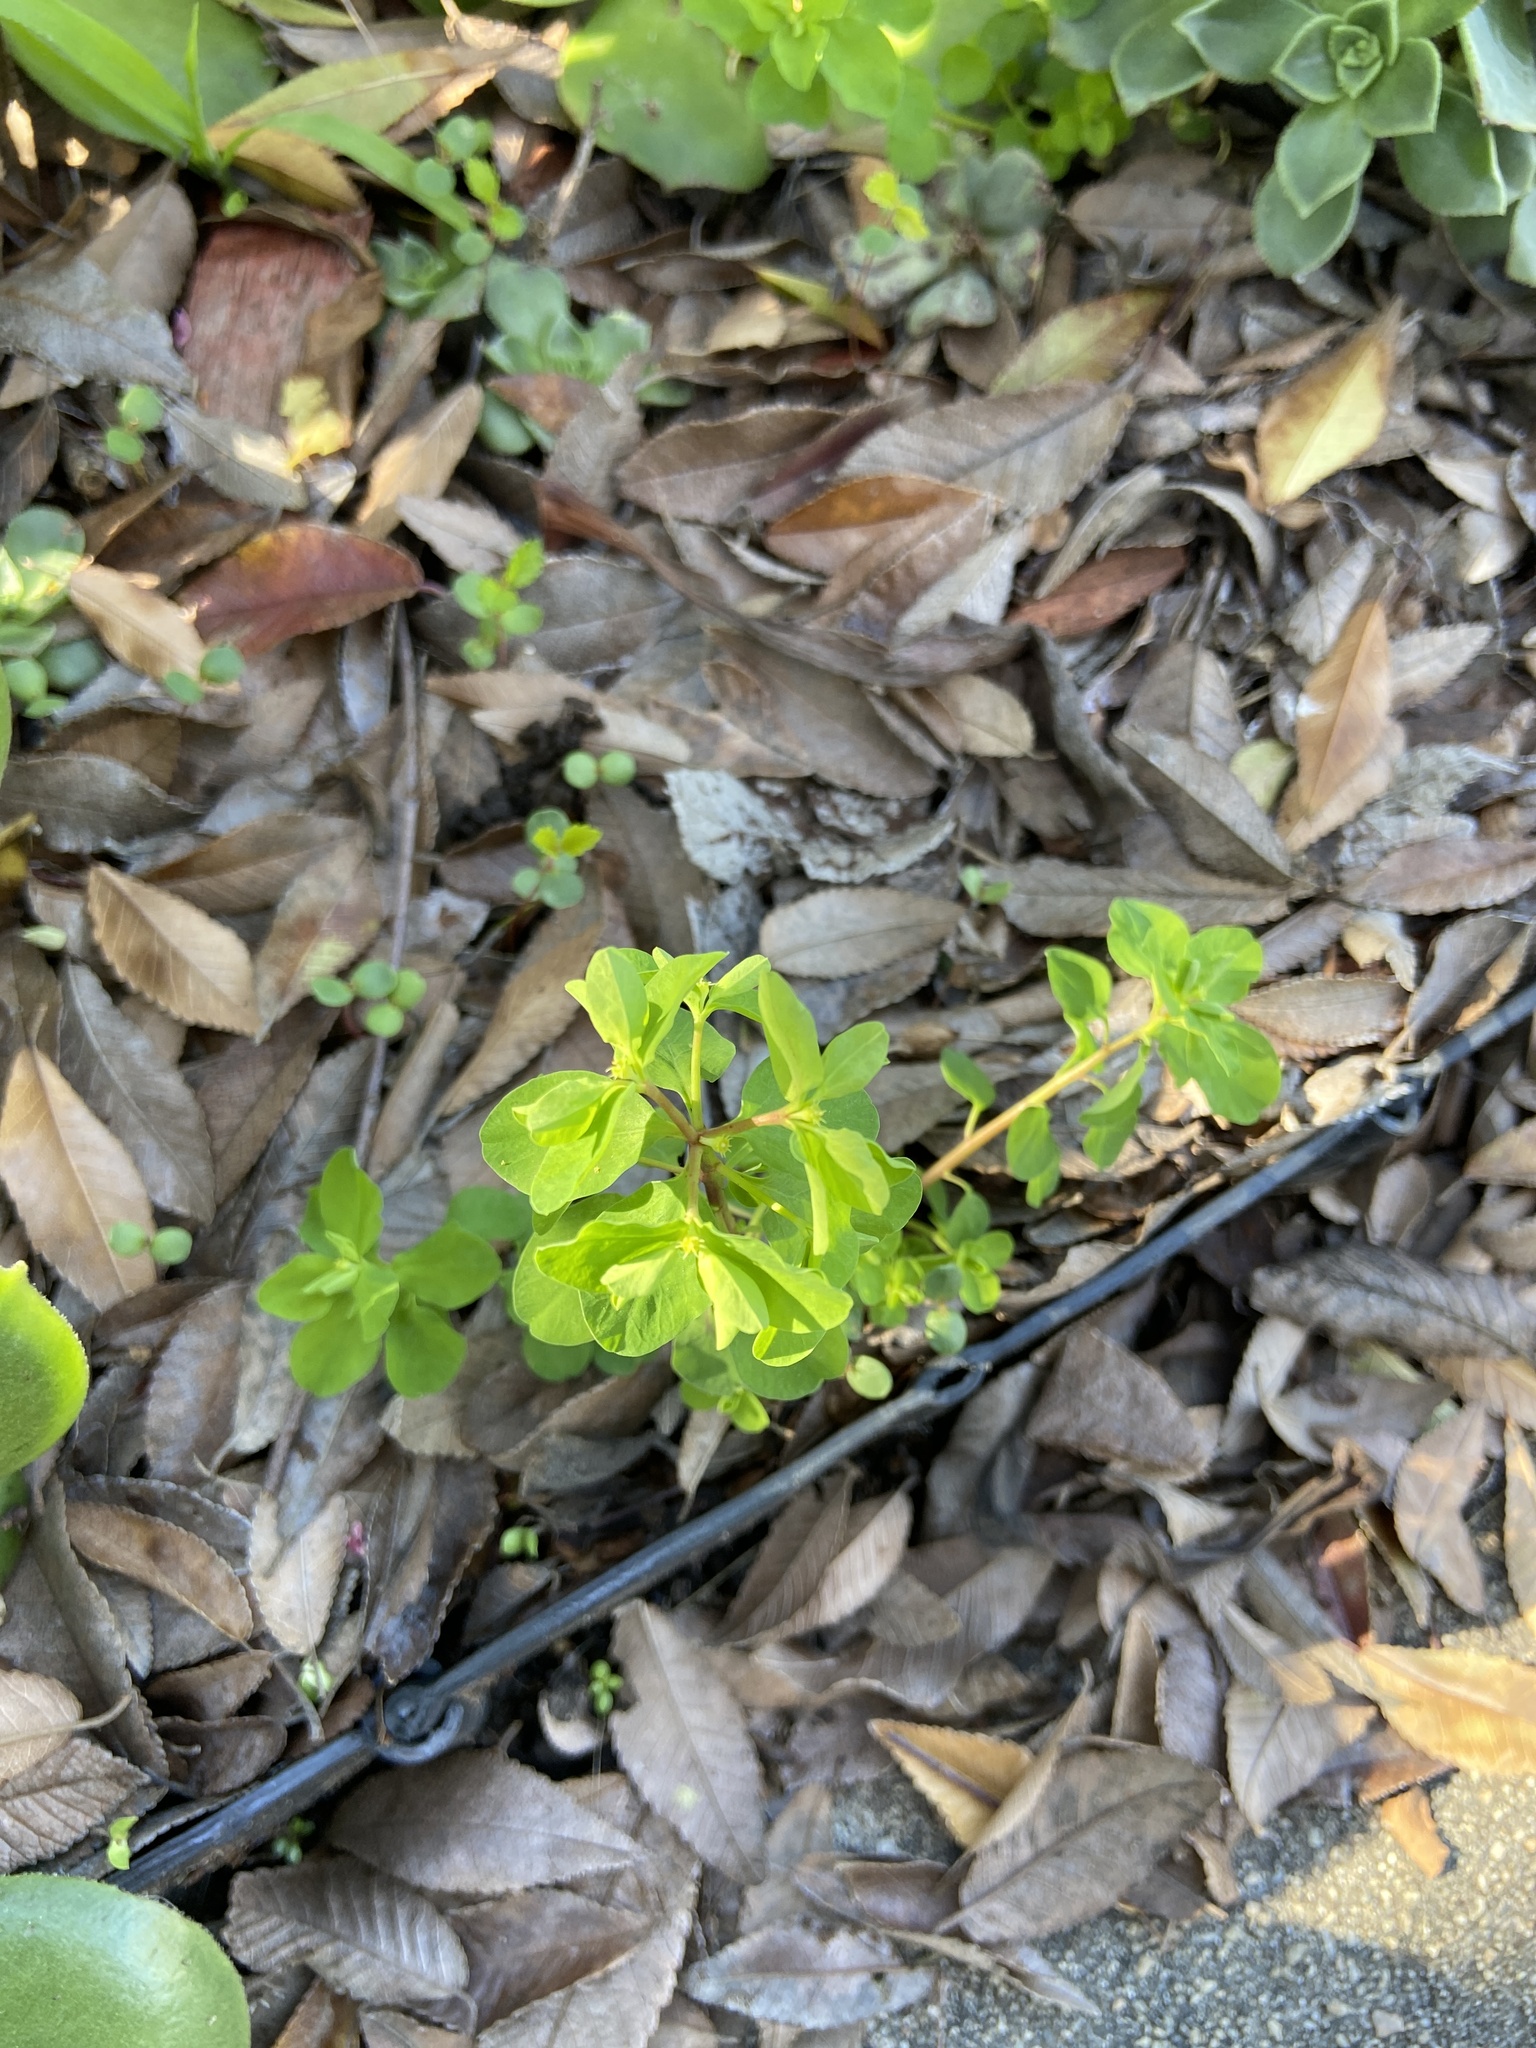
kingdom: Plantae
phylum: Tracheophyta
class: Magnoliopsida
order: Malpighiales
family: Euphorbiaceae
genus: Euphorbia
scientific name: Euphorbia peplus
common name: Petty spurge
